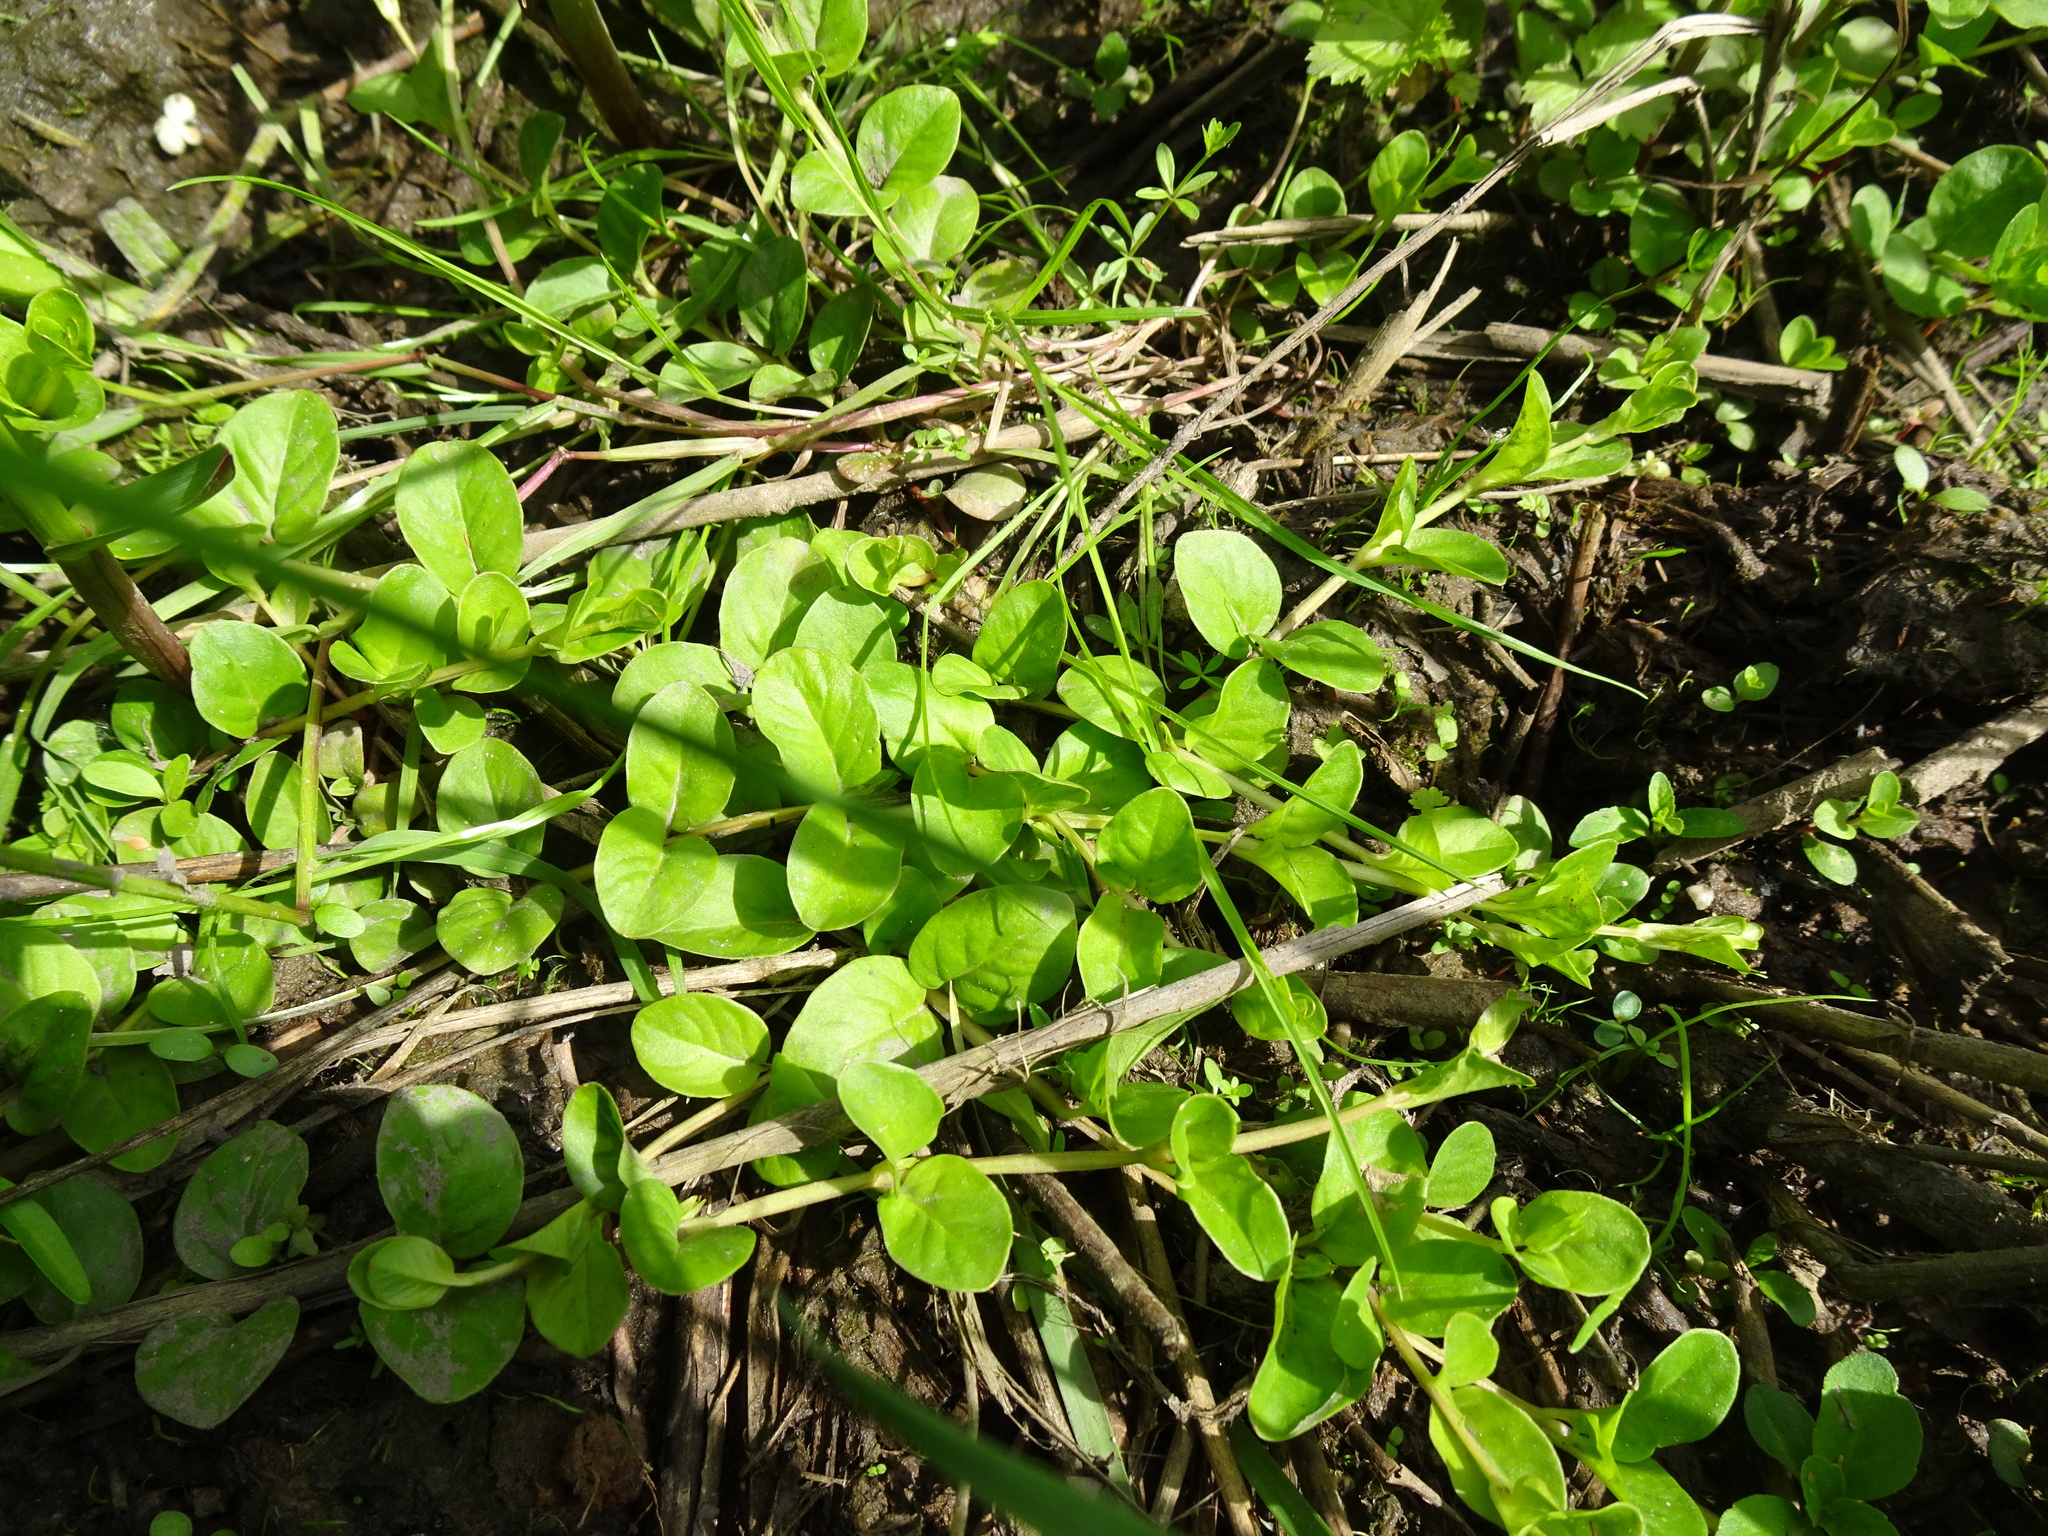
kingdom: Plantae
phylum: Tracheophyta
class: Magnoliopsida
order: Ericales
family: Primulaceae
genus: Lysimachia
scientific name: Lysimachia nummularia
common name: Moneywort
